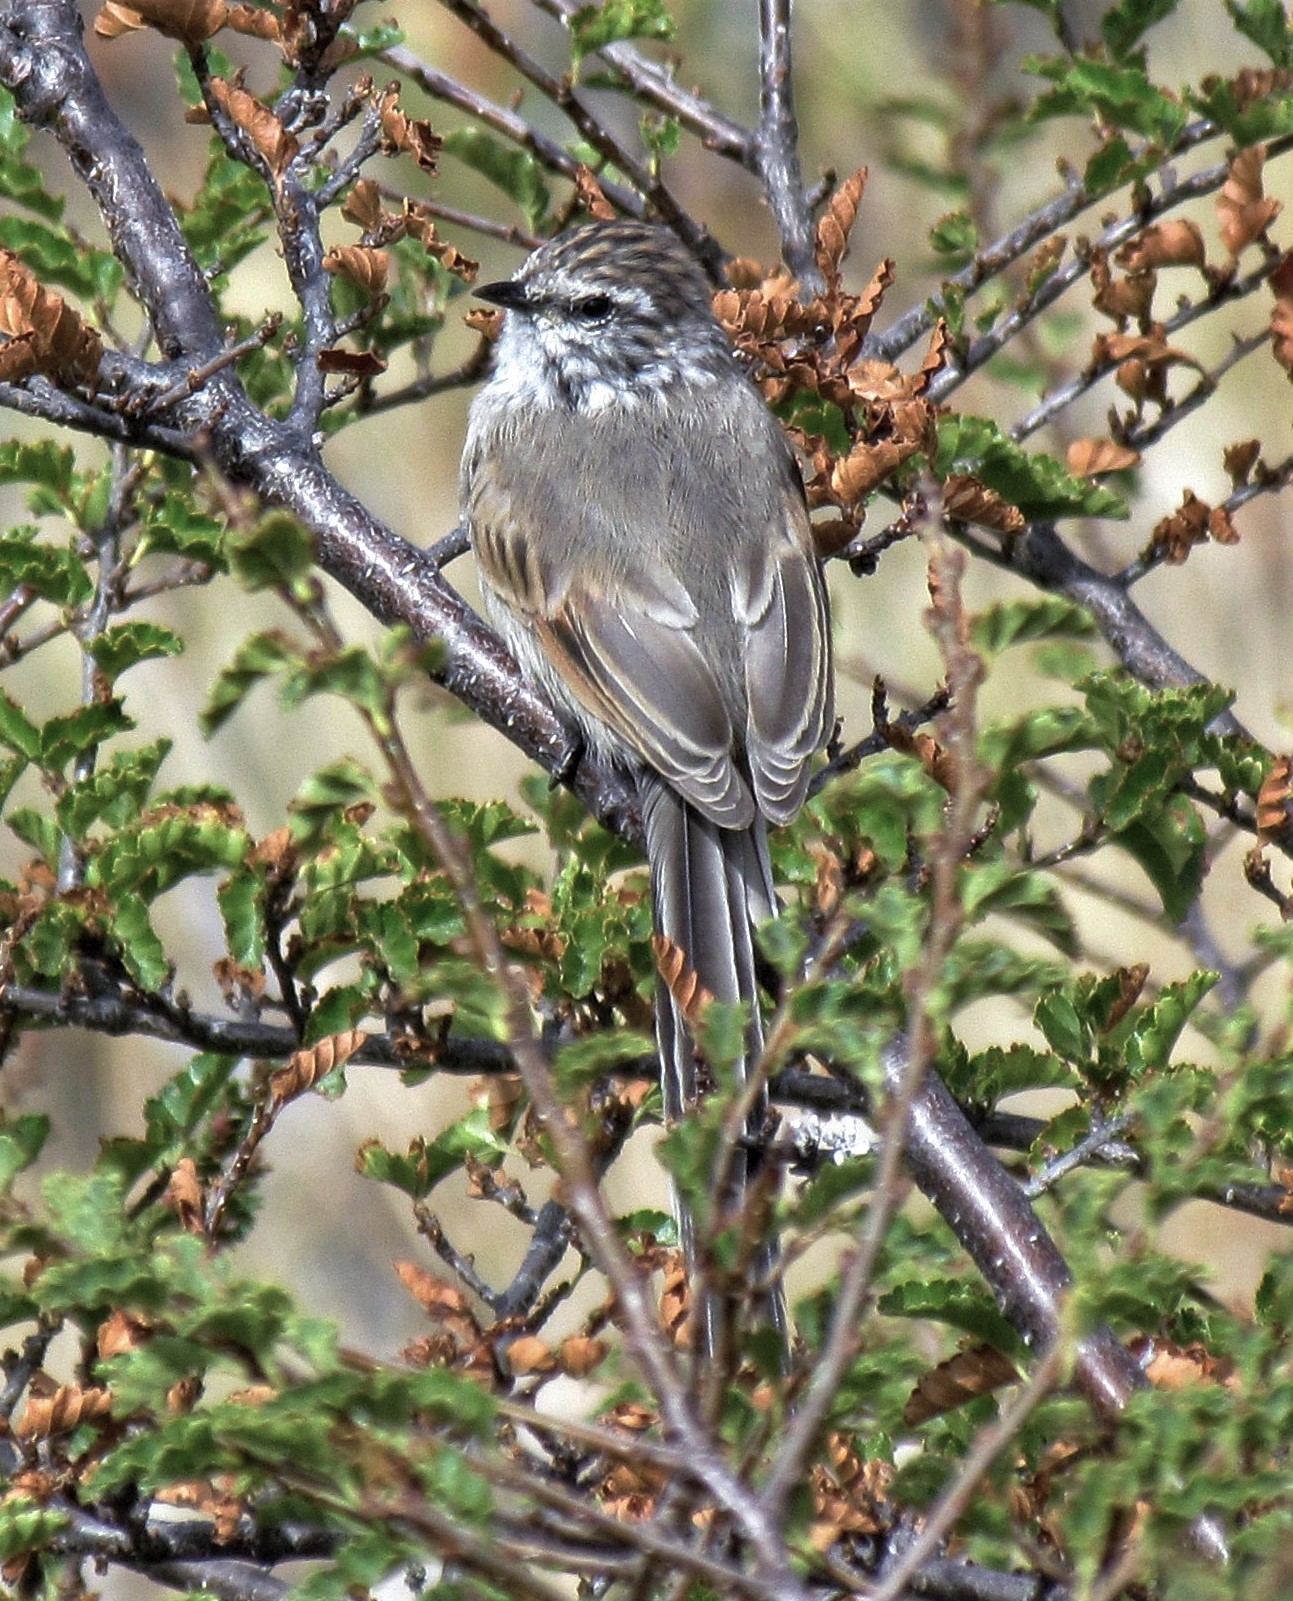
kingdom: Animalia
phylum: Chordata
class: Aves
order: Passeriformes
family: Furnariidae
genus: Leptasthenura
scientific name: Leptasthenura aegithaloides
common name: Plain-mantled tit-spinetail
